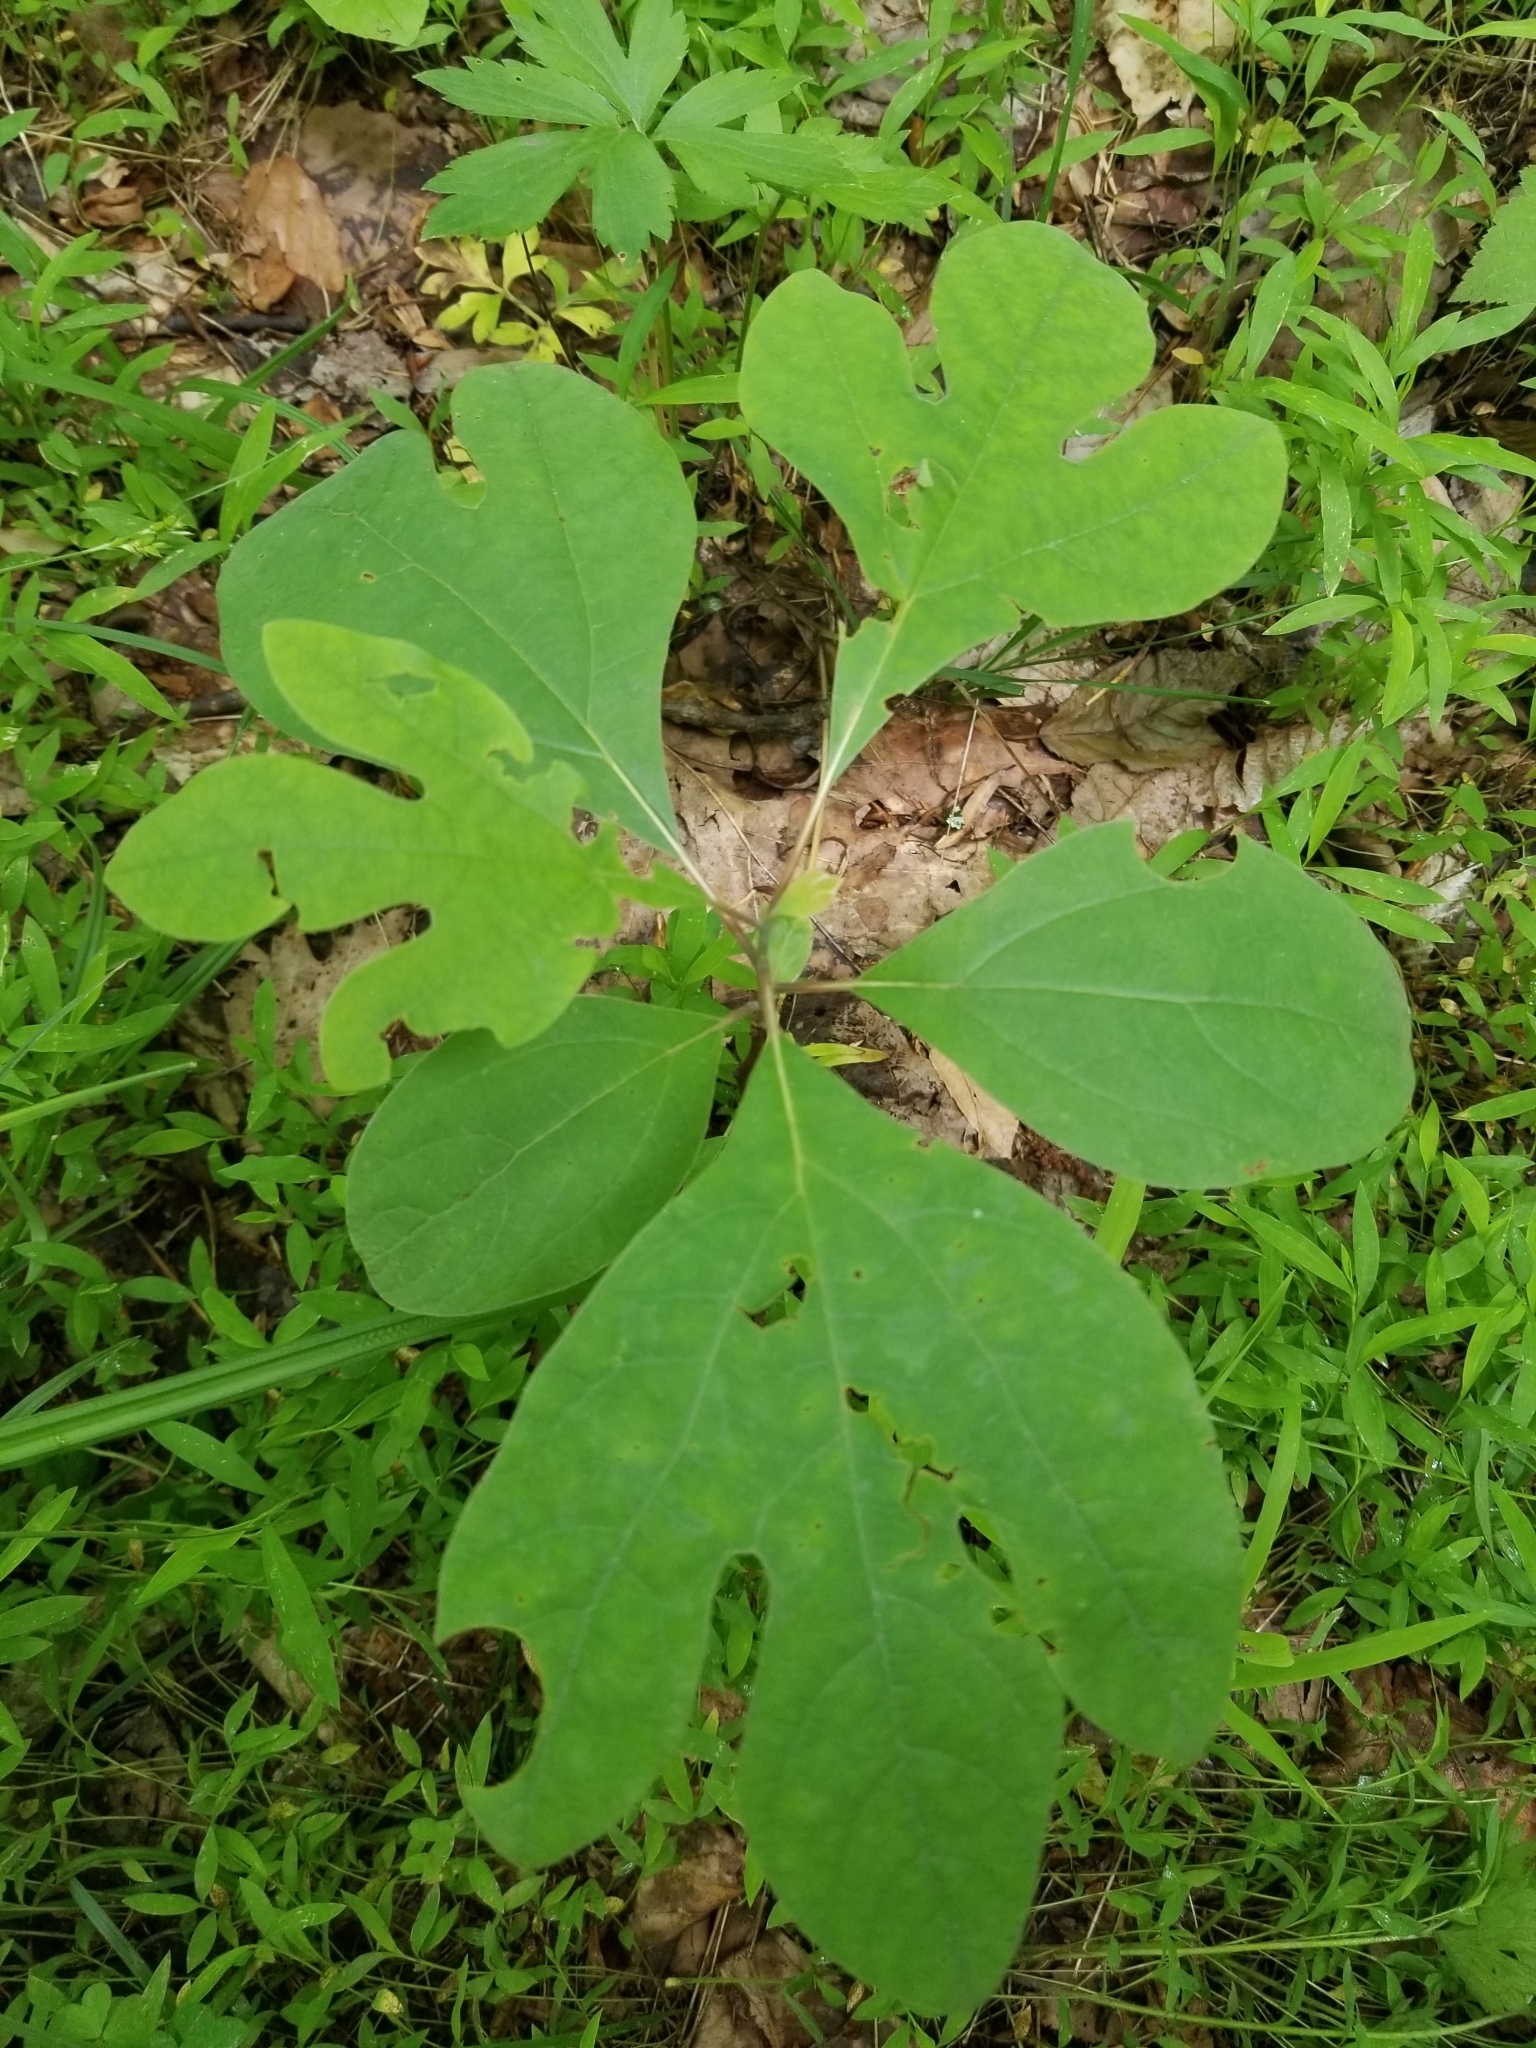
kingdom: Plantae
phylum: Tracheophyta
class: Magnoliopsida
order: Laurales
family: Lauraceae
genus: Sassafras
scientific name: Sassafras albidum
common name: Sassafras
